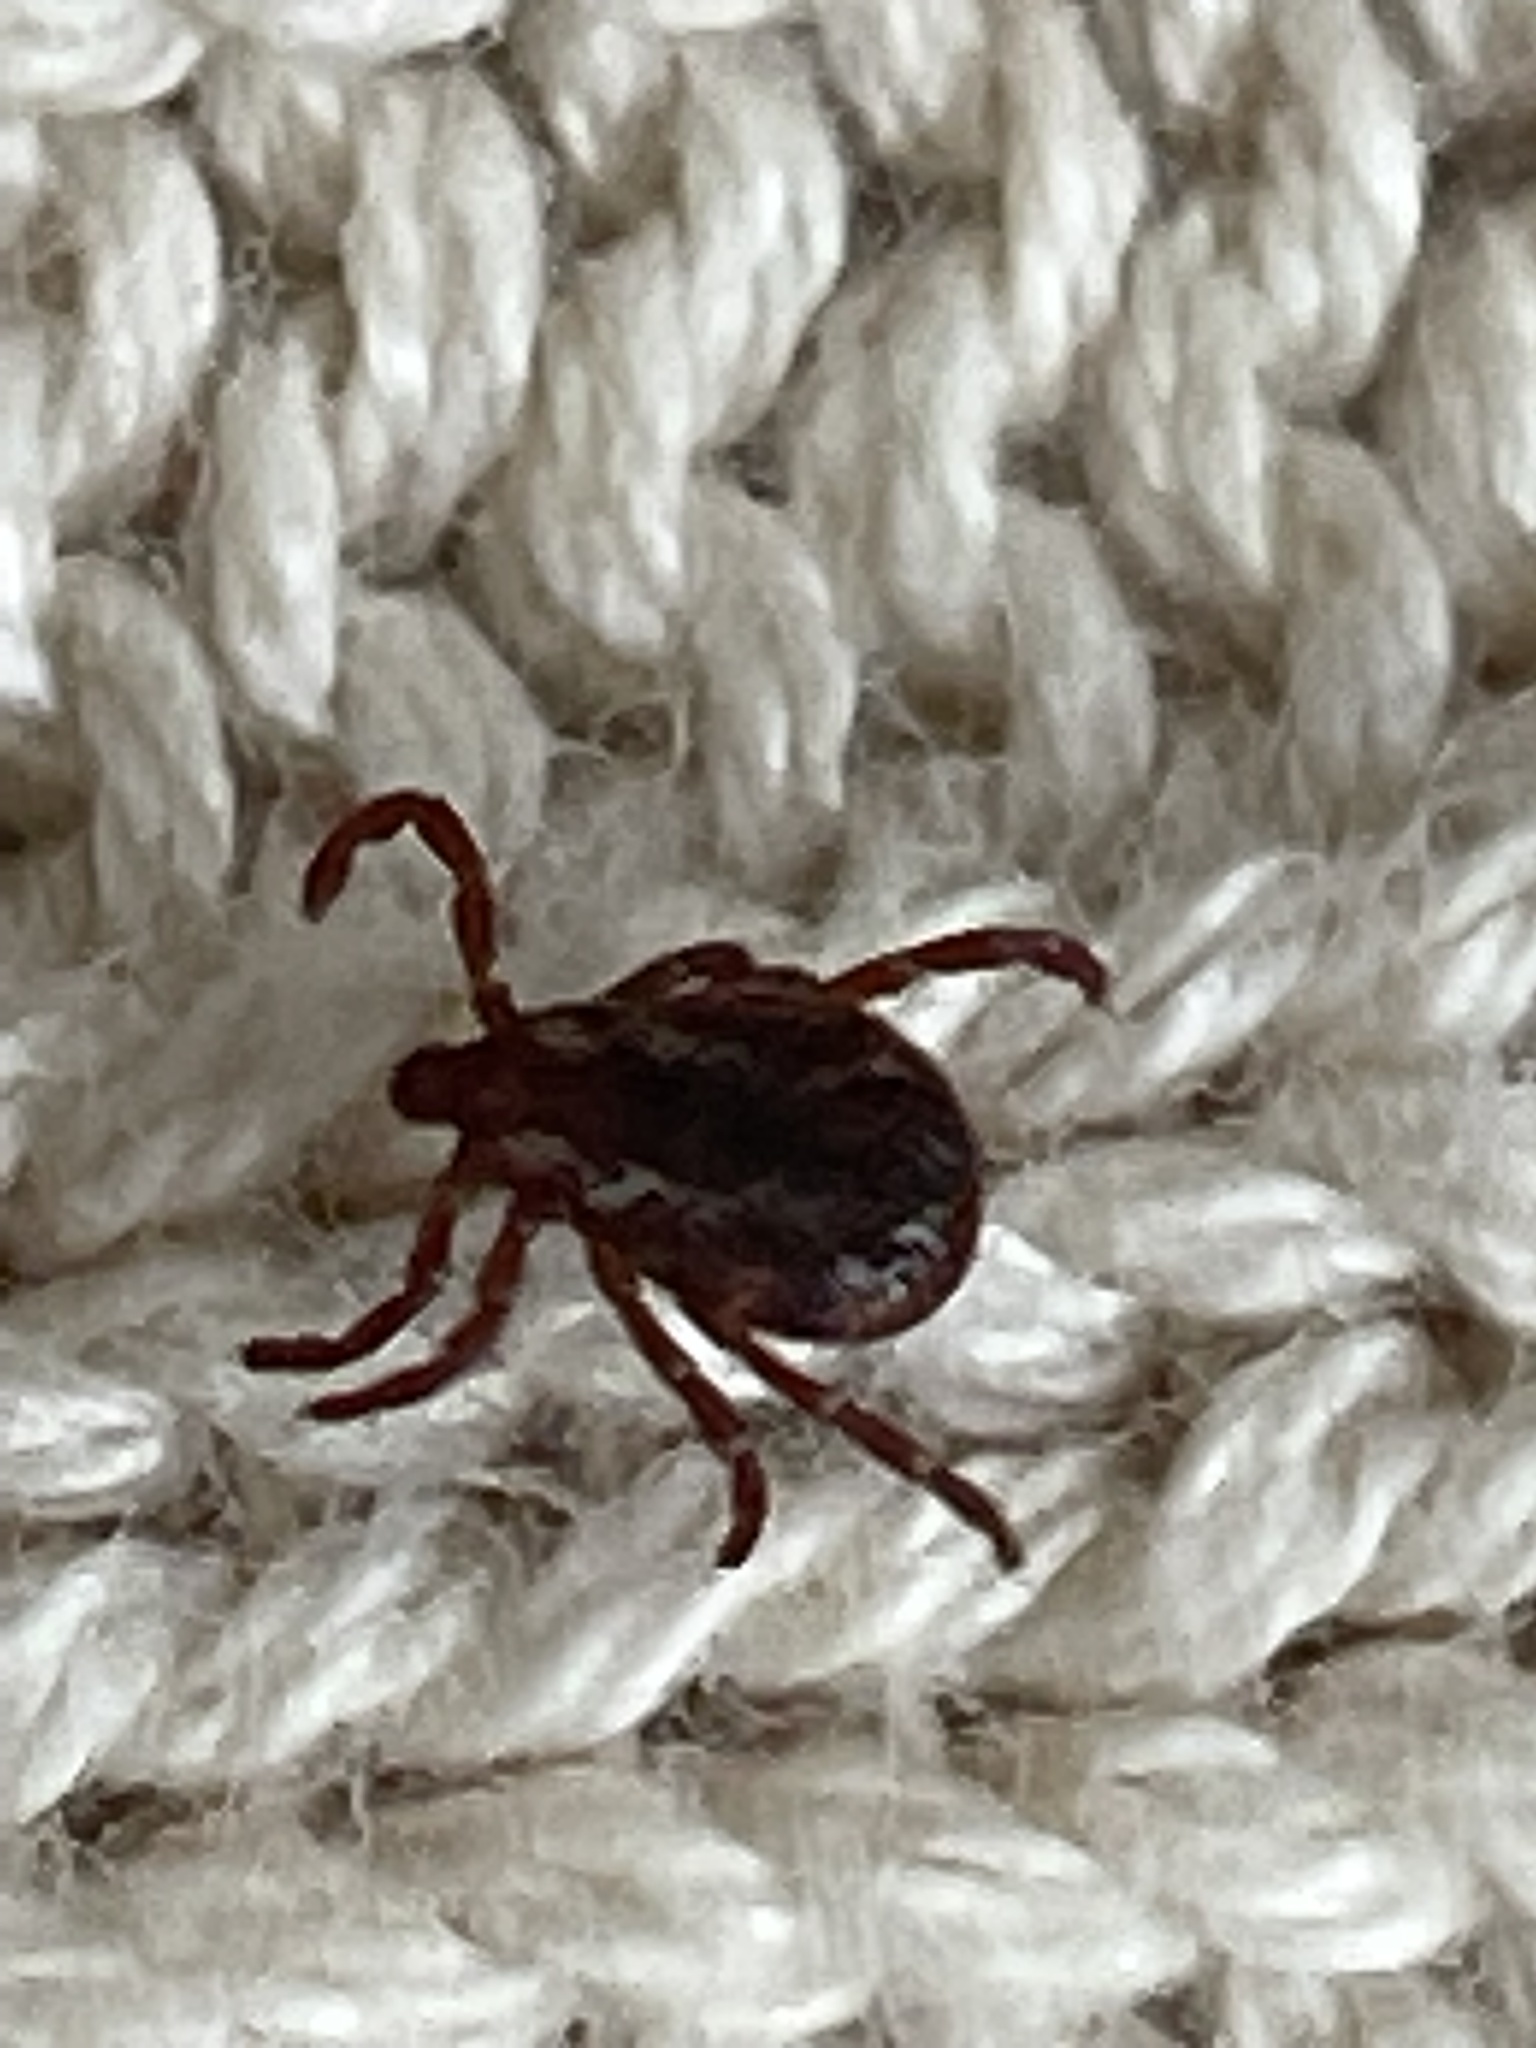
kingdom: Animalia
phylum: Arthropoda
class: Arachnida
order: Ixodida
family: Ixodidae
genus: Dermacentor
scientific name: Dermacentor variabilis
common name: American dog tick
